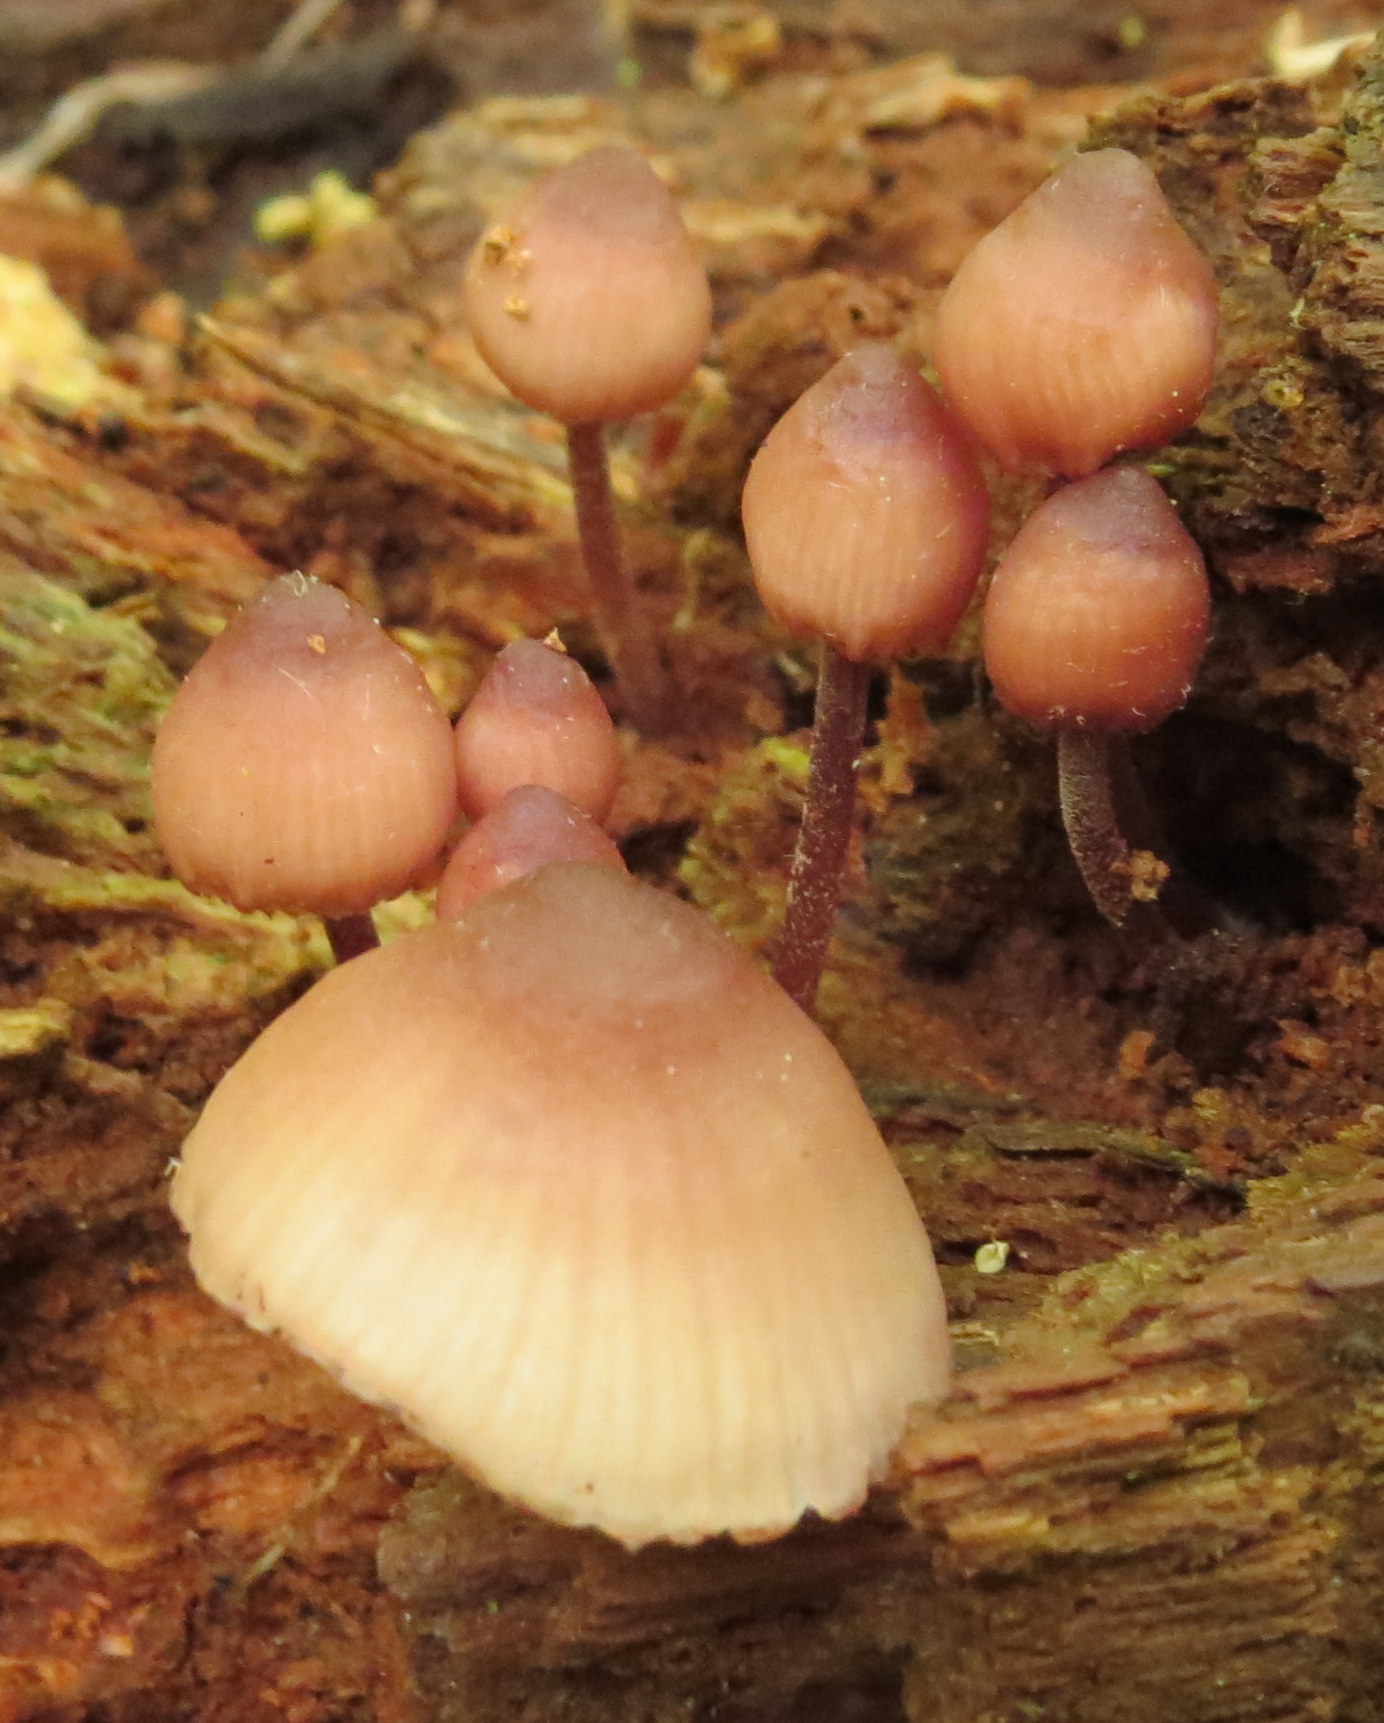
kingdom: Fungi
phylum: Basidiomycota
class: Agaricomycetes
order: Agaricales
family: Mycenaceae
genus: Mycena
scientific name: Mycena haematopus
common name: Burgundydrop bonnet
